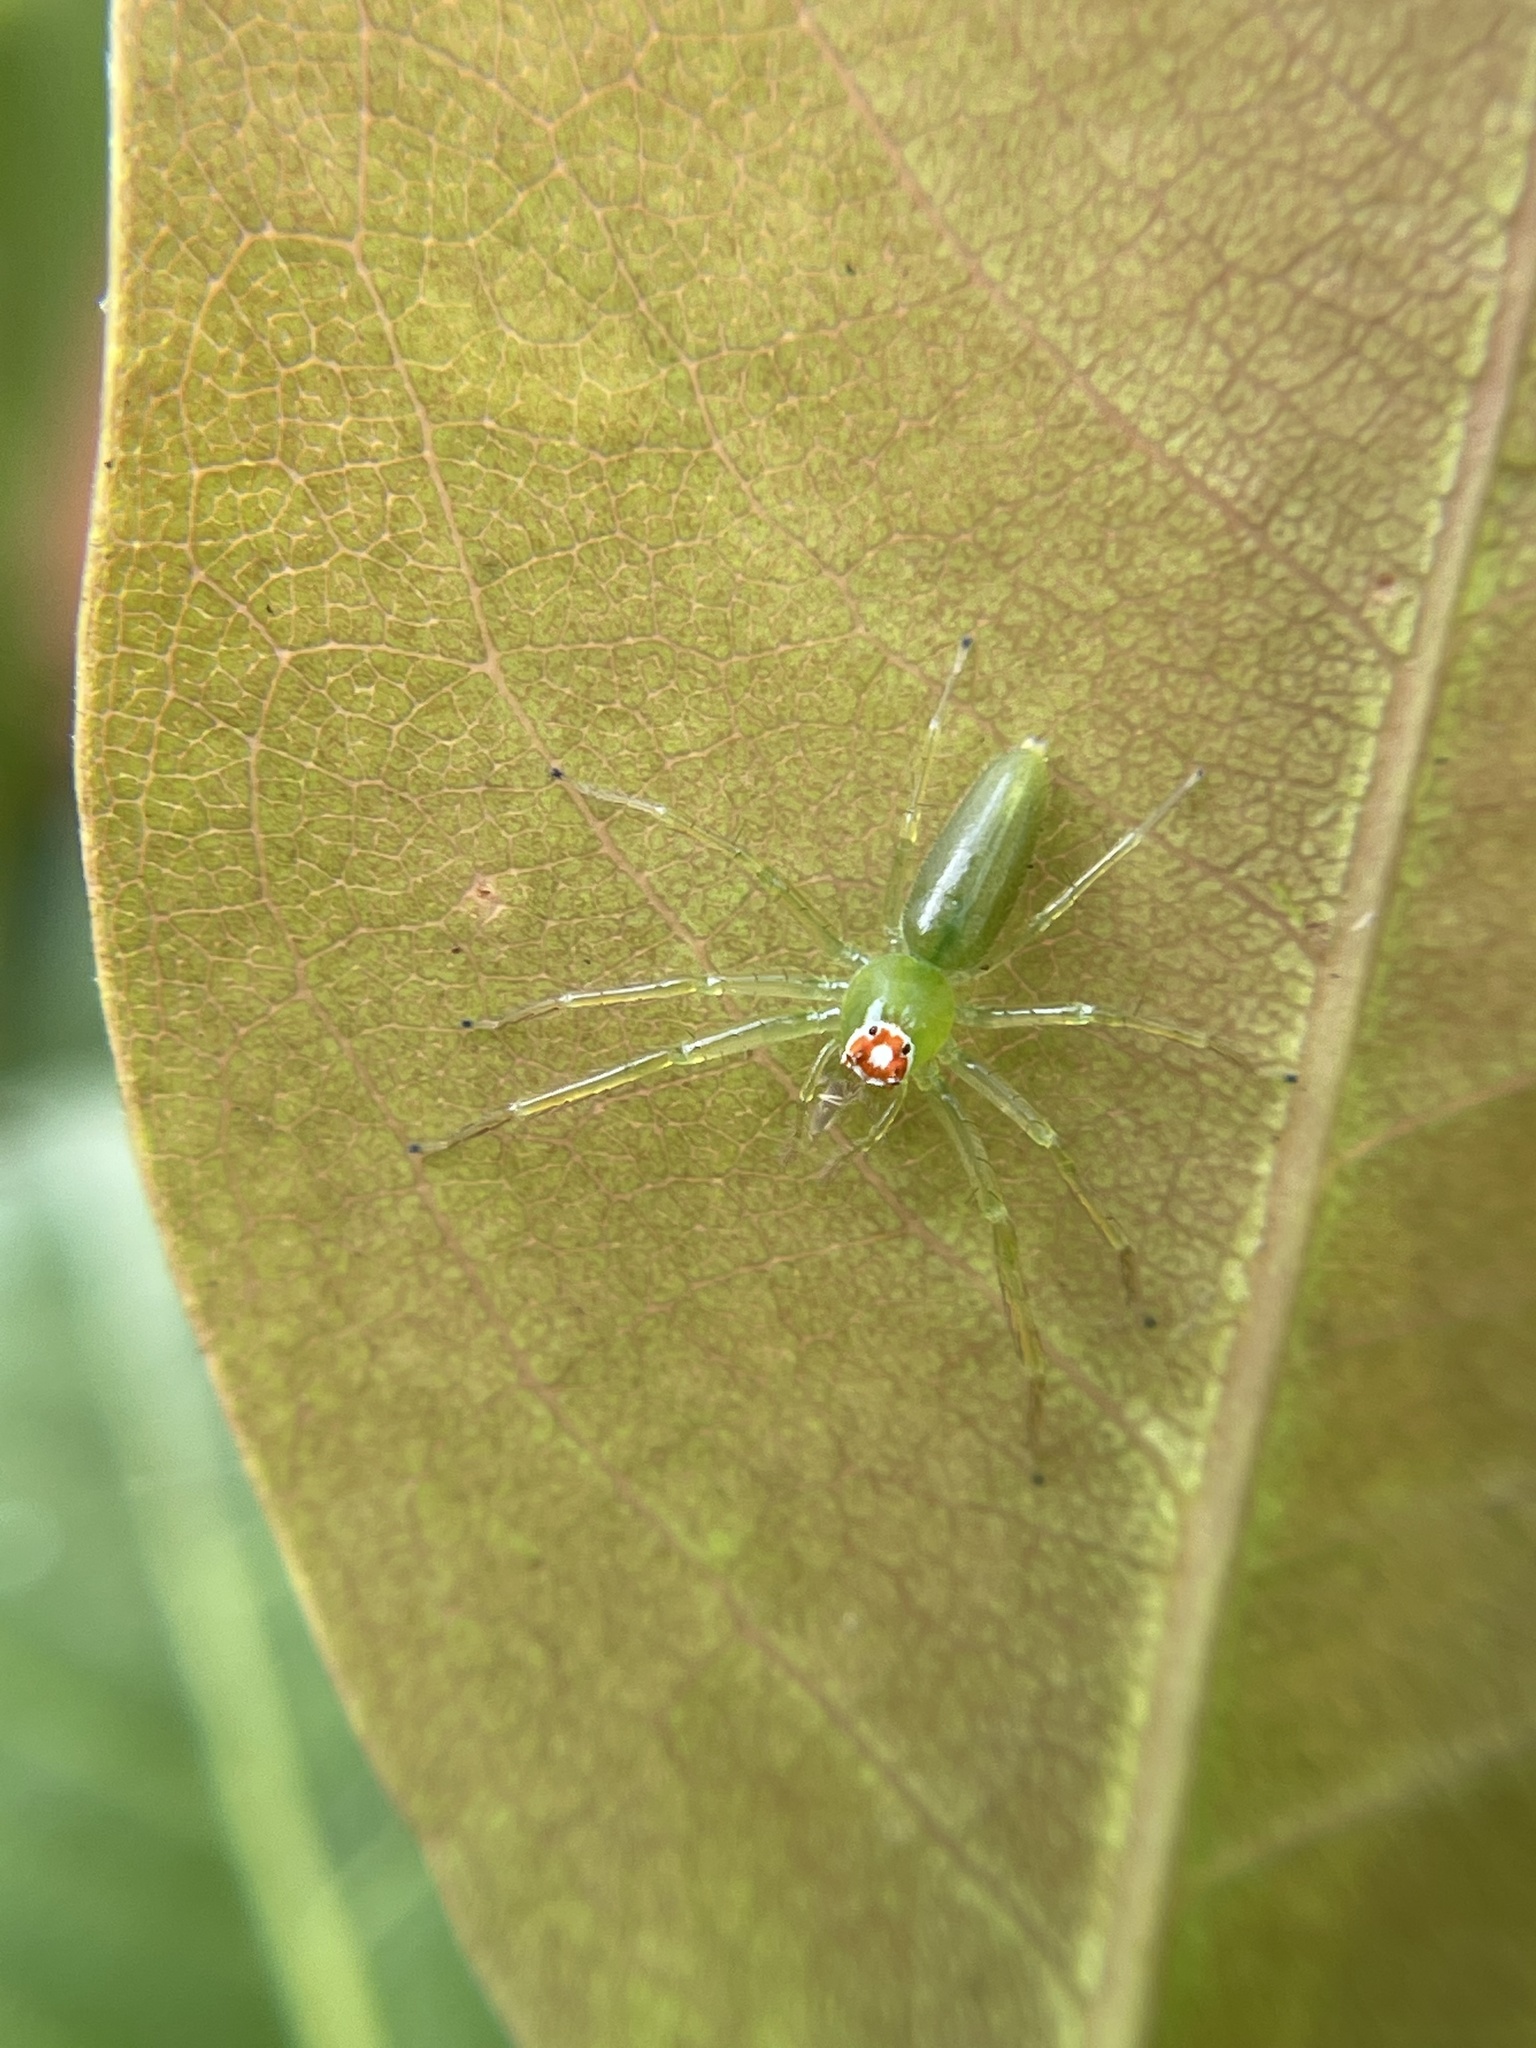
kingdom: Animalia
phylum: Arthropoda
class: Arachnida
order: Araneae
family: Salticidae
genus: Lyssomanes
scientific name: Lyssomanes viridis
